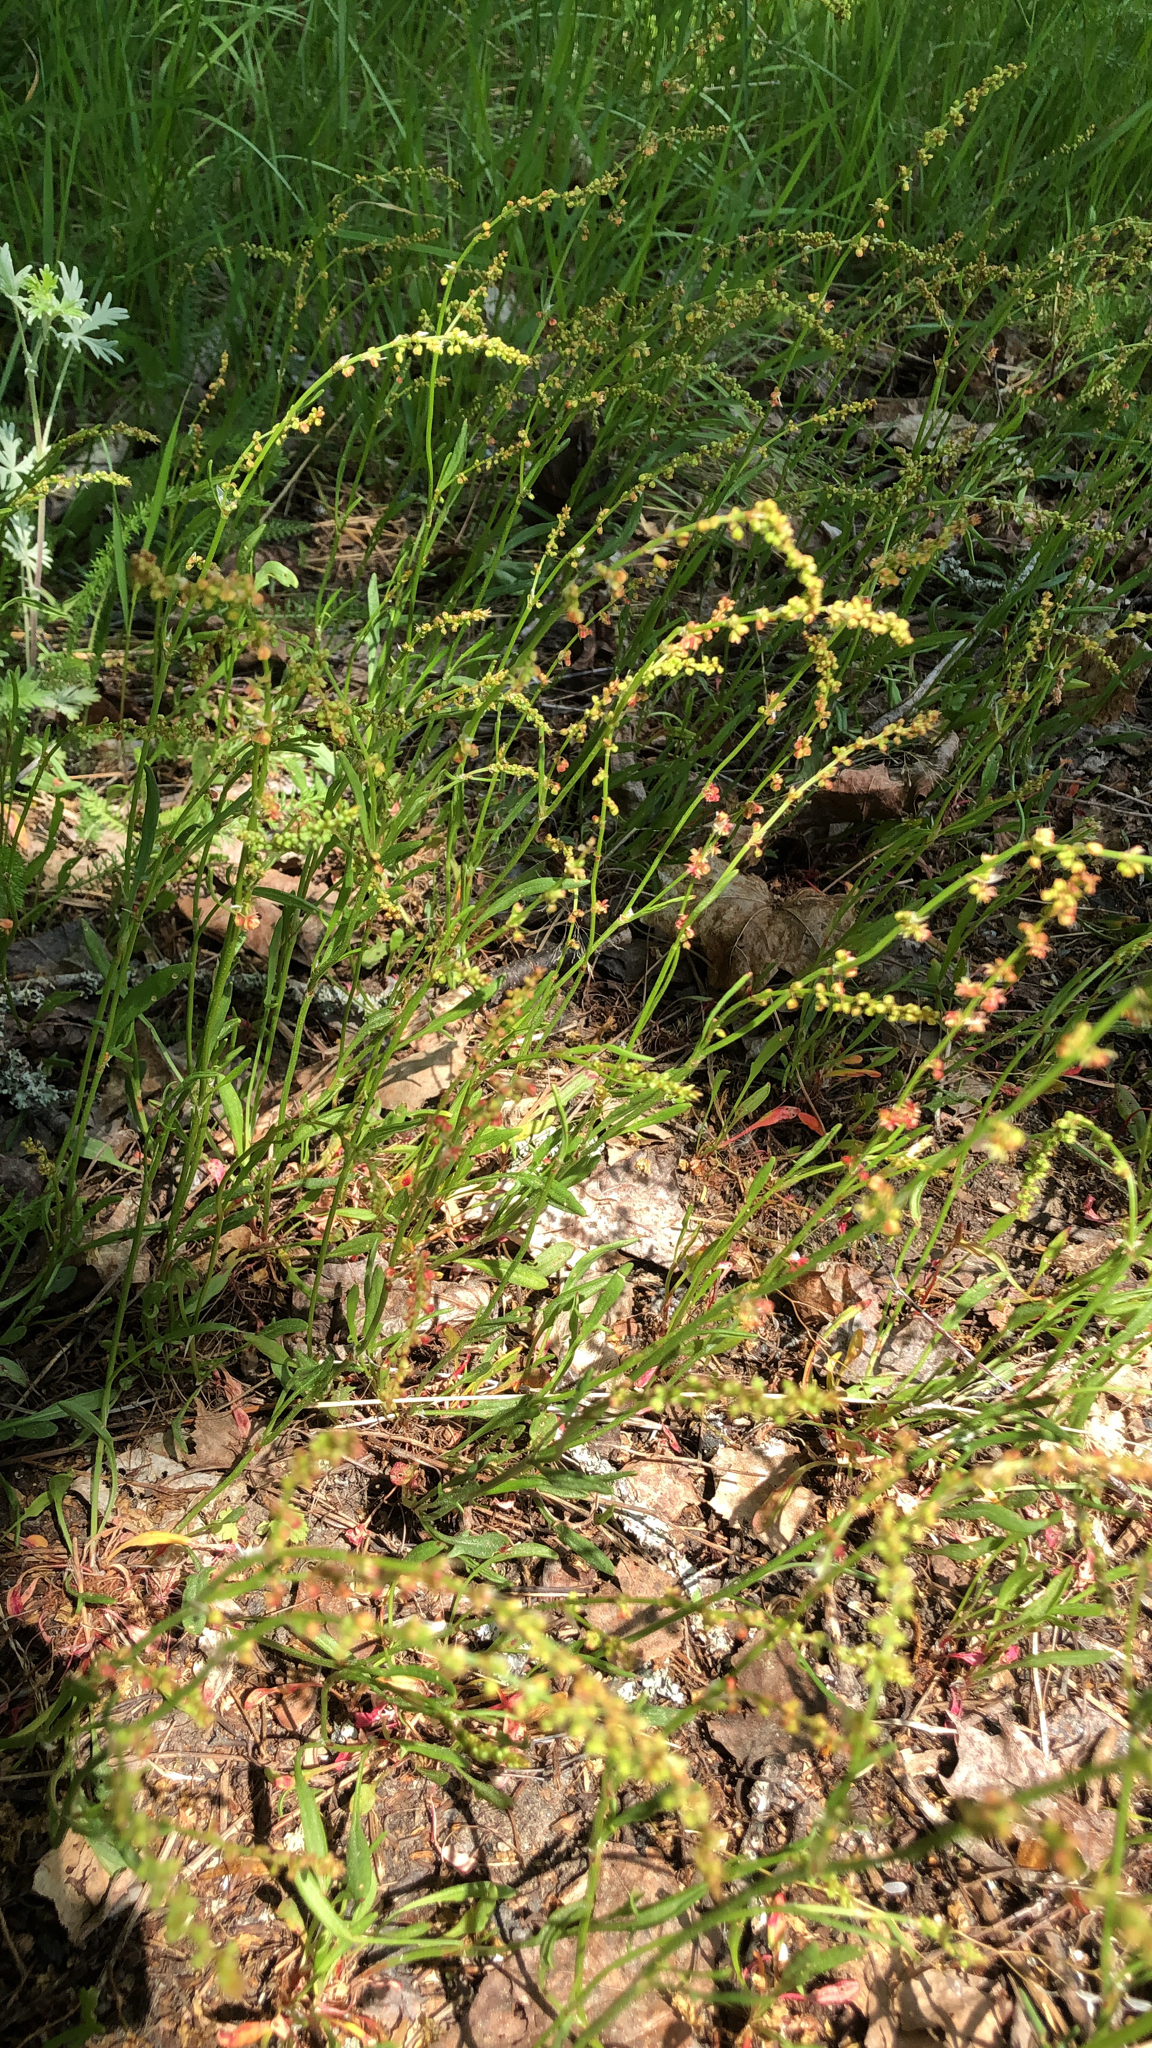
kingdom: Plantae
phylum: Tracheophyta
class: Magnoliopsida
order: Caryophyllales
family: Polygonaceae
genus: Rumex
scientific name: Rumex acetosella
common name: Common sheep sorrel
